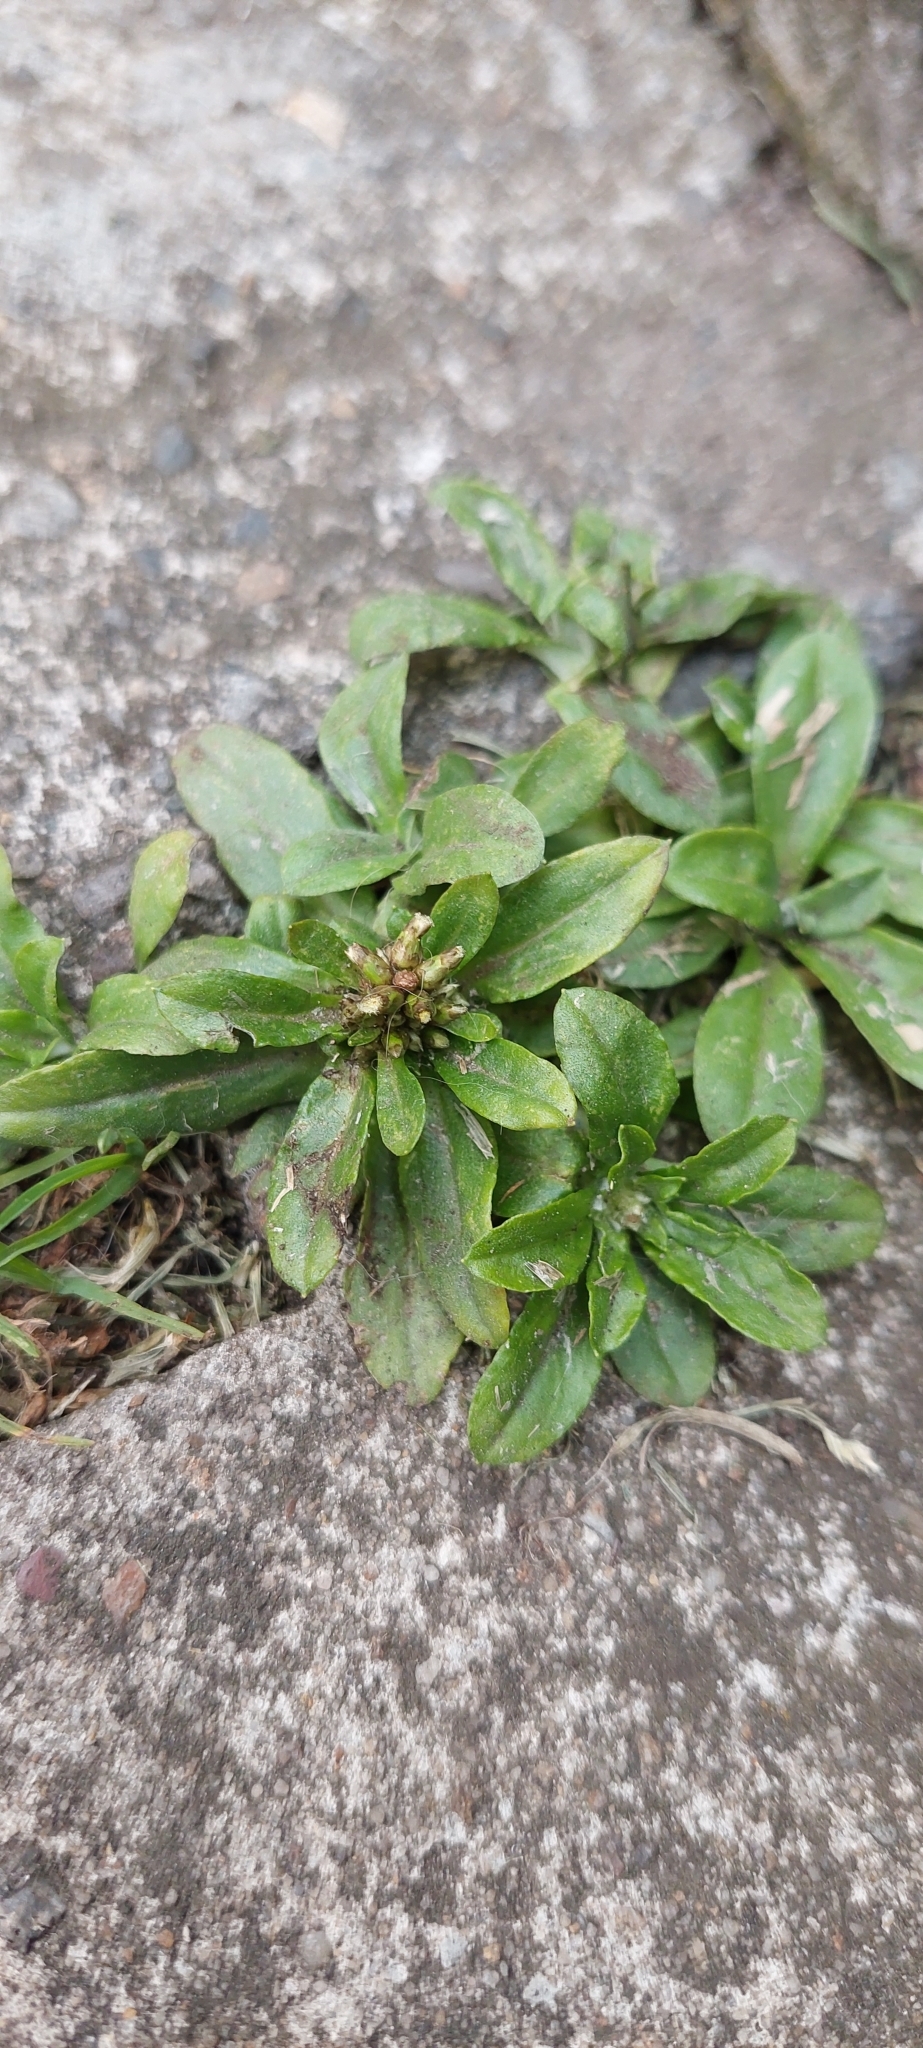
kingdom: Plantae
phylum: Tracheophyta
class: Magnoliopsida
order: Asterales
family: Asteraceae
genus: Gamochaeta
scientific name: Gamochaeta americana
